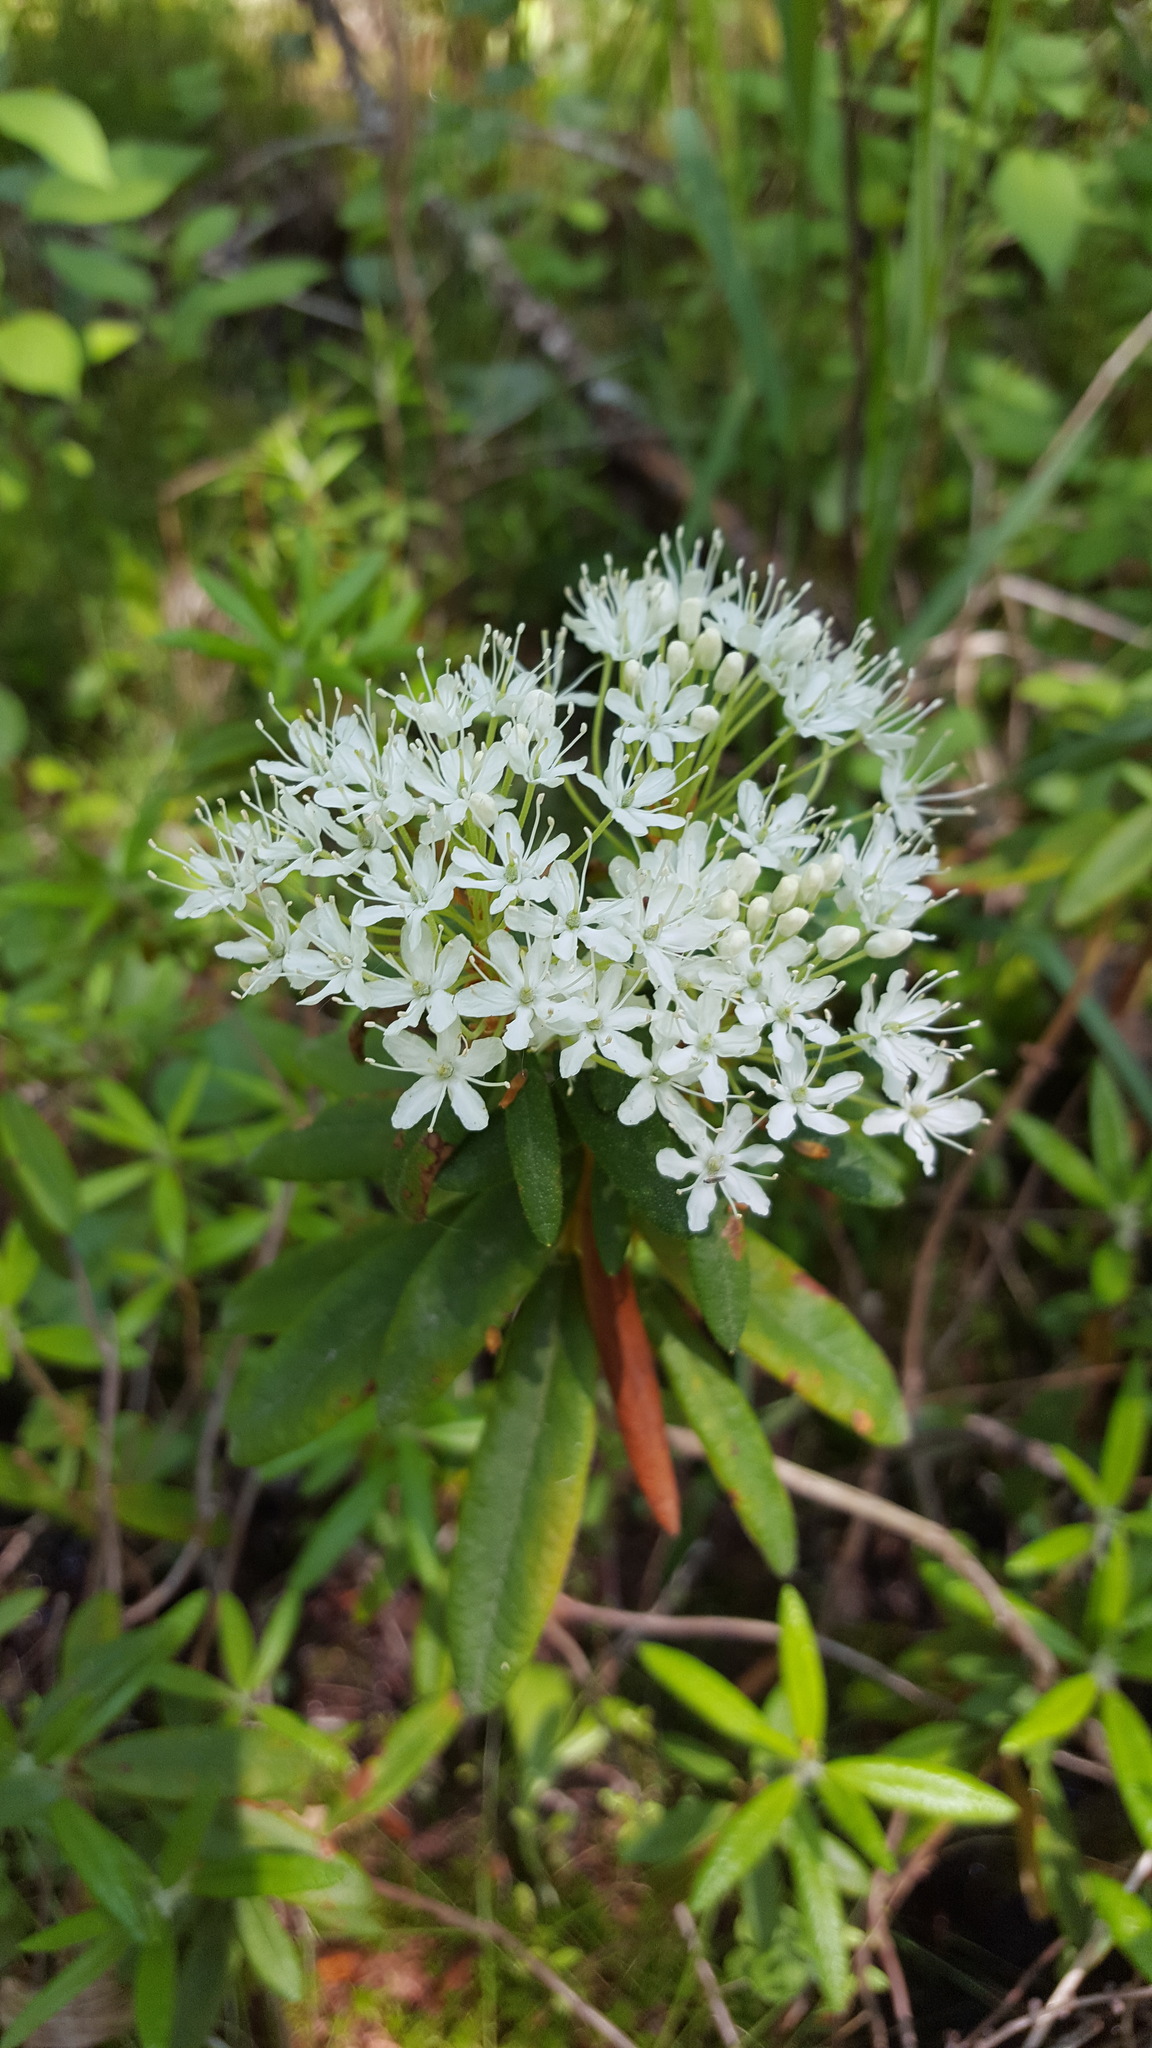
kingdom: Plantae
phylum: Tracheophyta
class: Magnoliopsida
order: Ericales
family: Ericaceae
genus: Rhododendron
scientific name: Rhododendron groenlandicum
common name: Bog labrador tea
